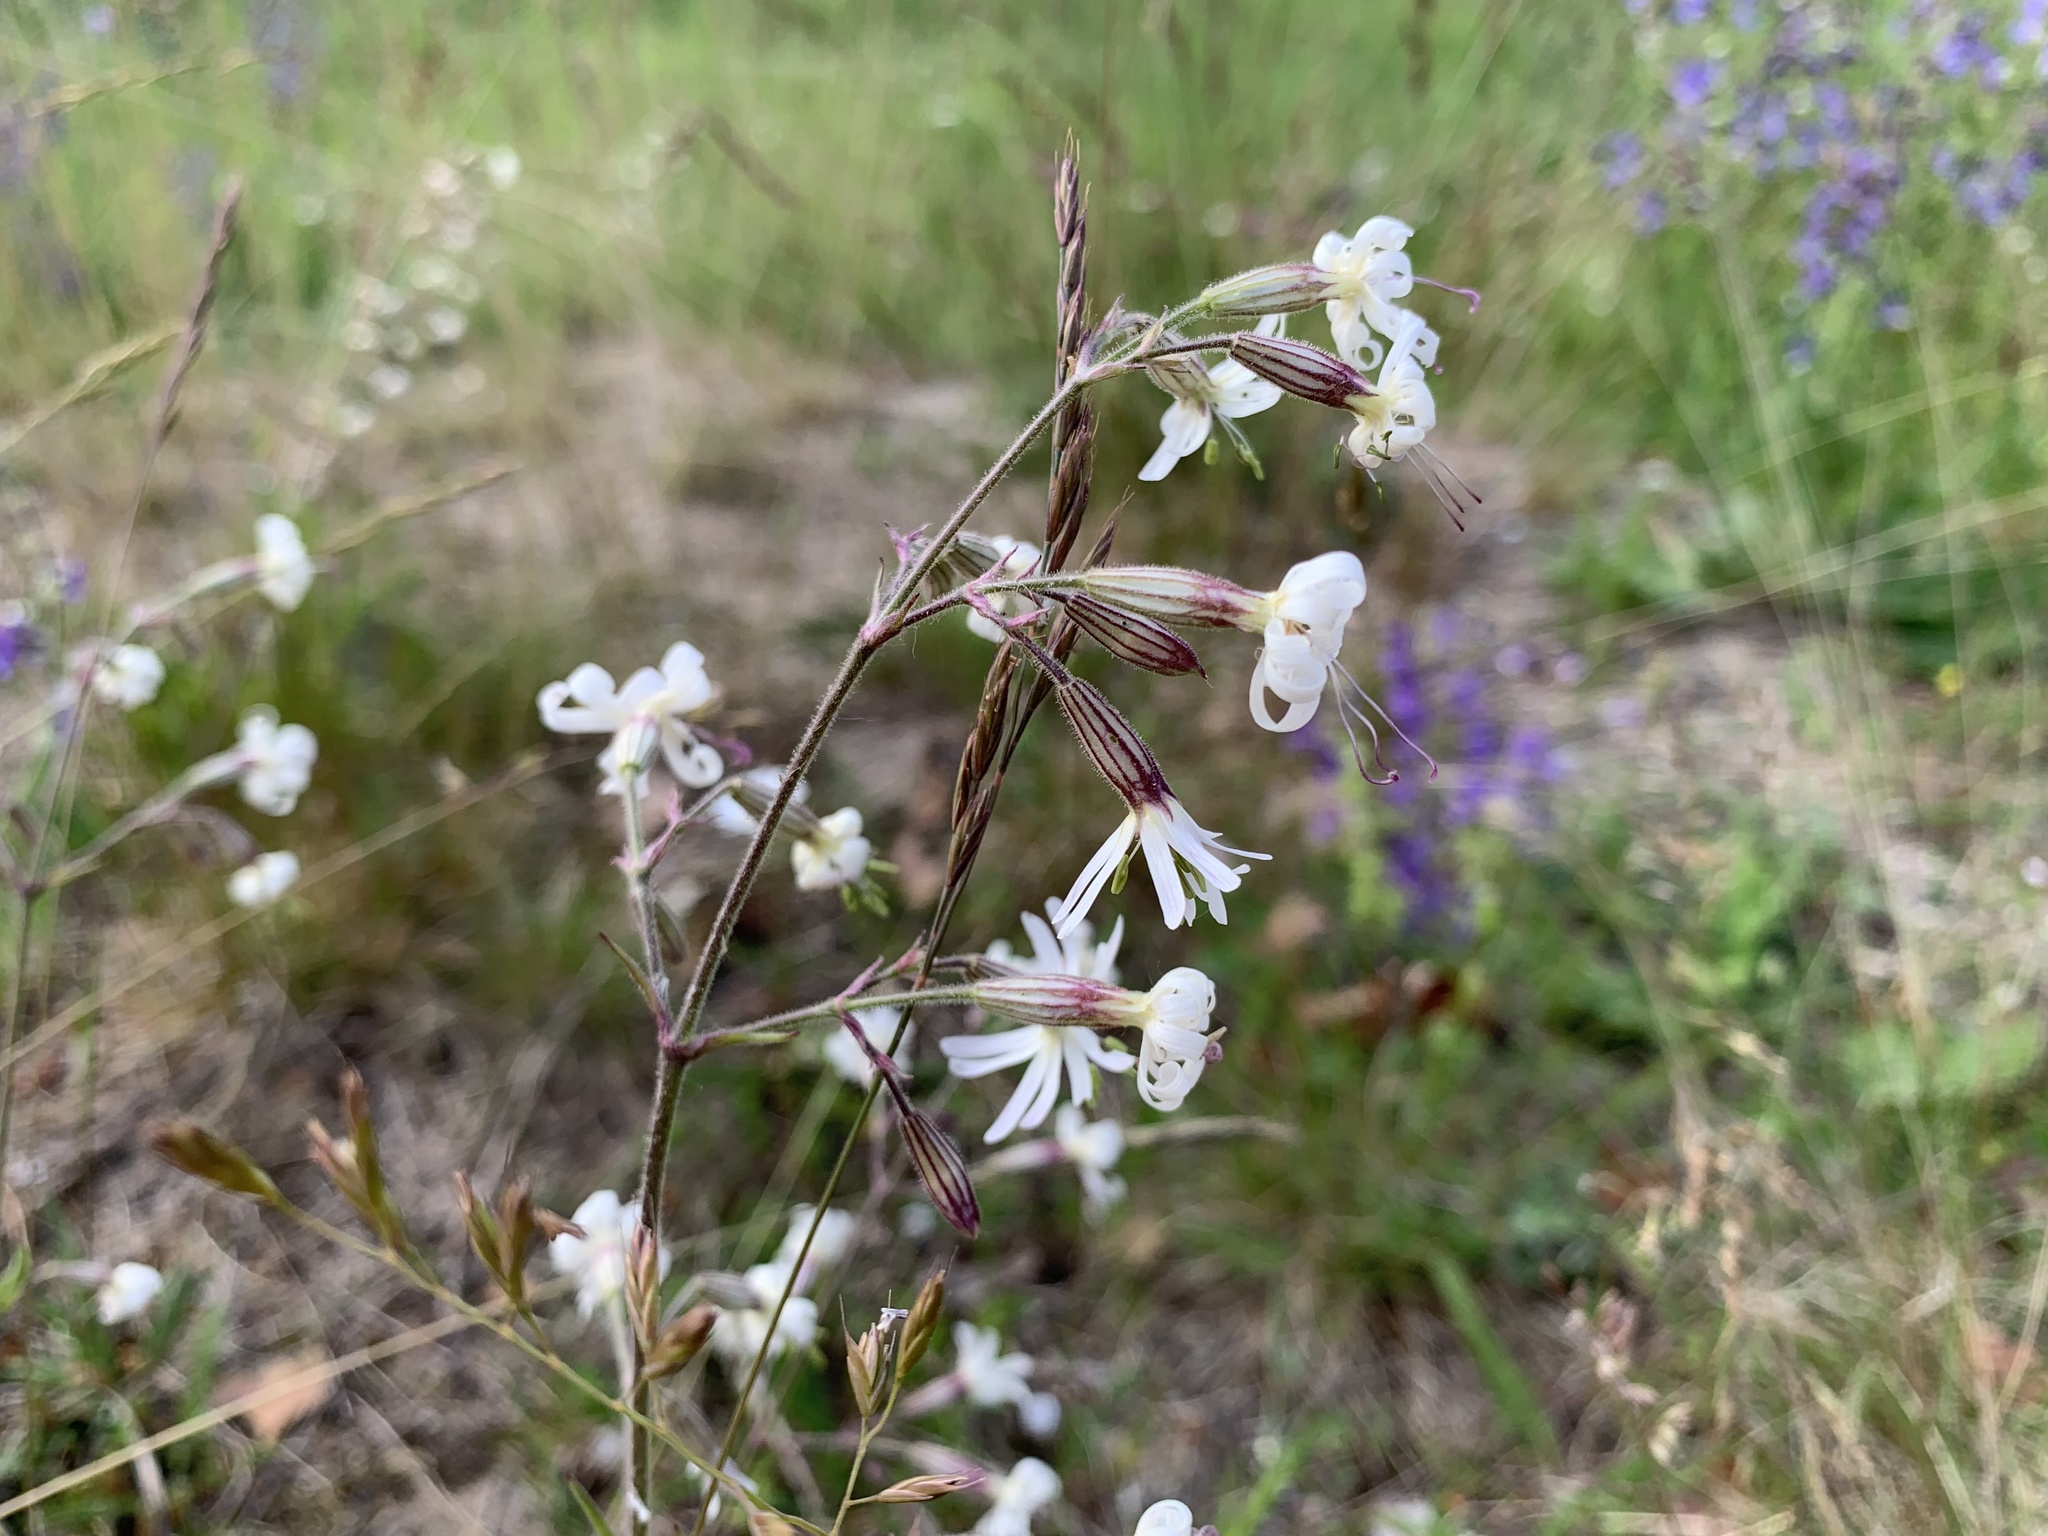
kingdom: Plantae
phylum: Tracheophyta
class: Magnoliopsida
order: Caryophyllales
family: Caryophyllaceae
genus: Silene
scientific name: Silene nutans
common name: Nottingham catchfly
